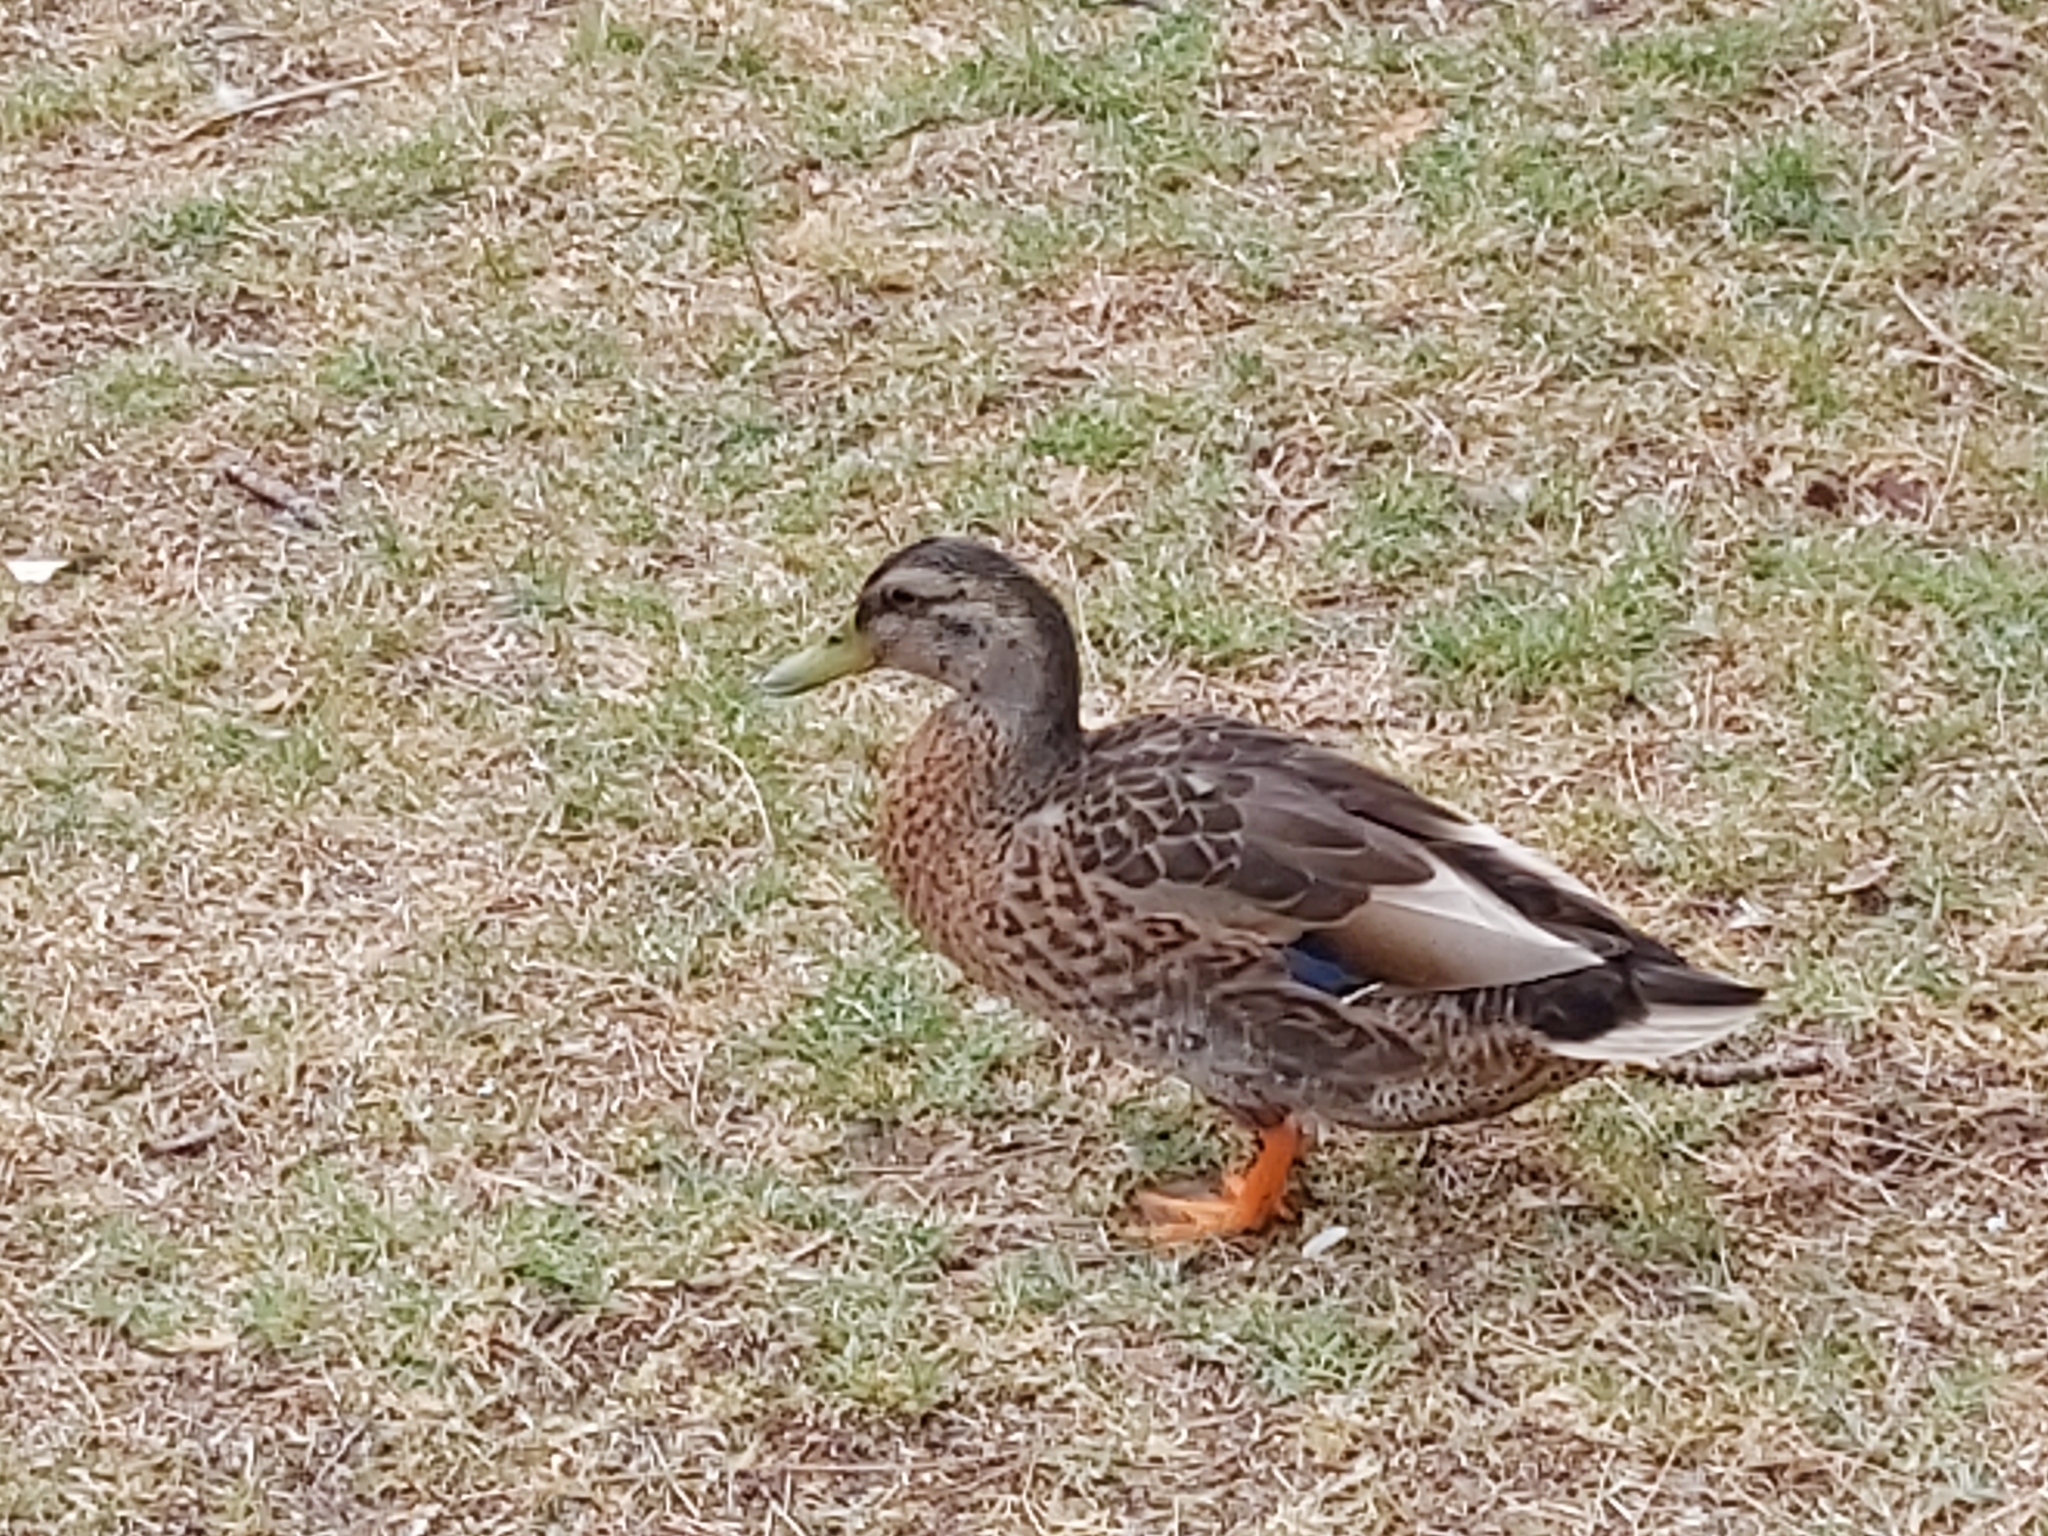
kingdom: Animalia
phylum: Chordata
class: Aves
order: Anseriformes
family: Anatidae
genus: Anas
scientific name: Anas platyrhynchos
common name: Mallard
